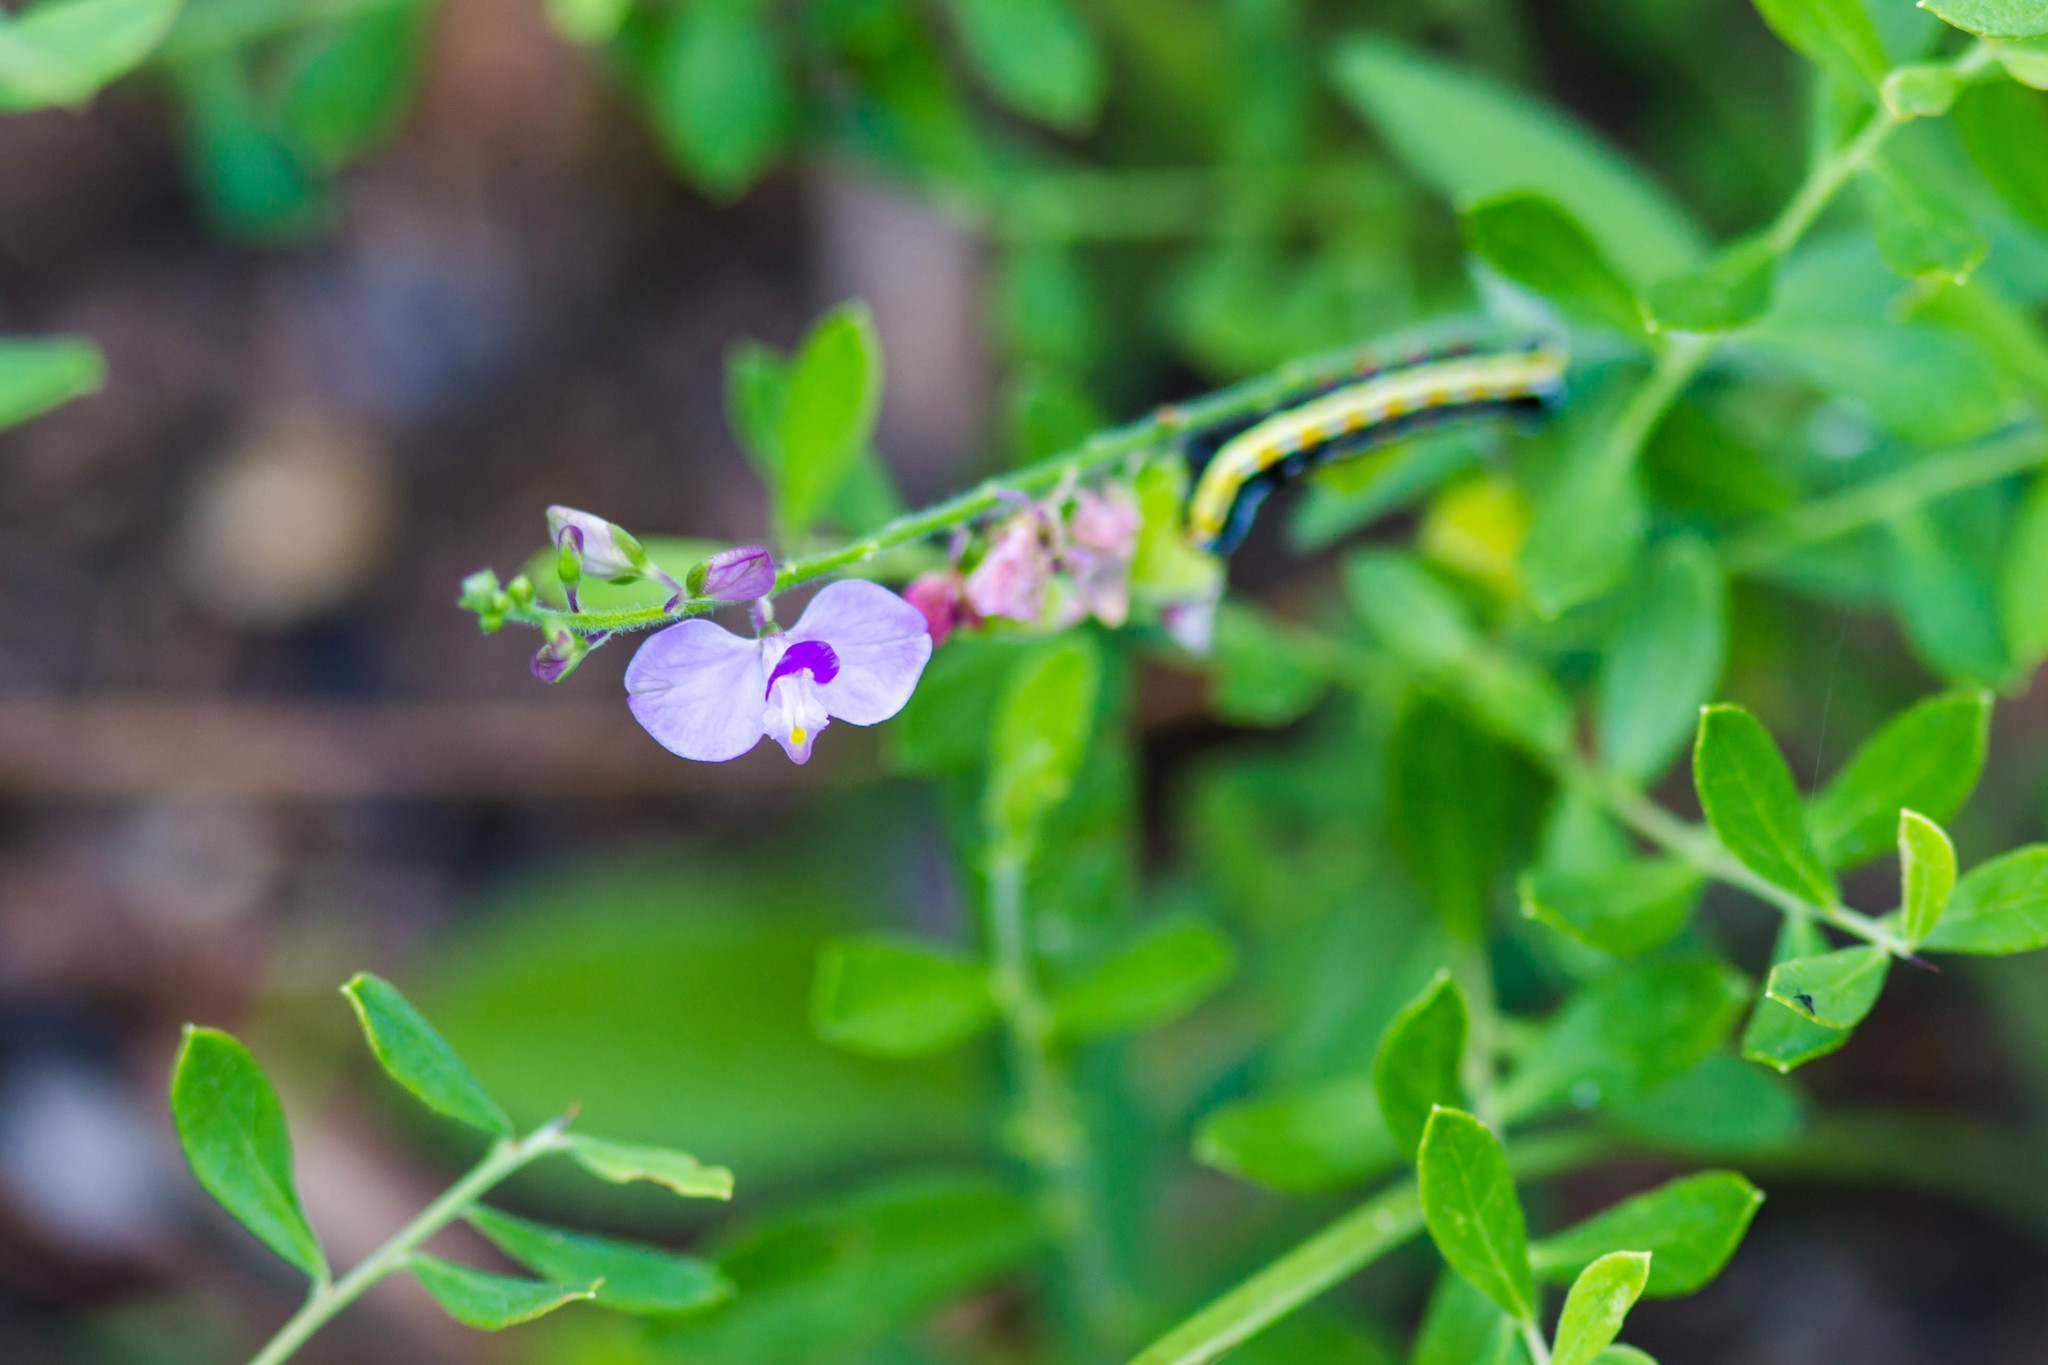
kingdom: Plantae
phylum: Tracheophyta
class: Magnoliopsida
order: Fabales
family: Polygalaceae
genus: Asemeia
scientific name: Asemeia grandiflora
